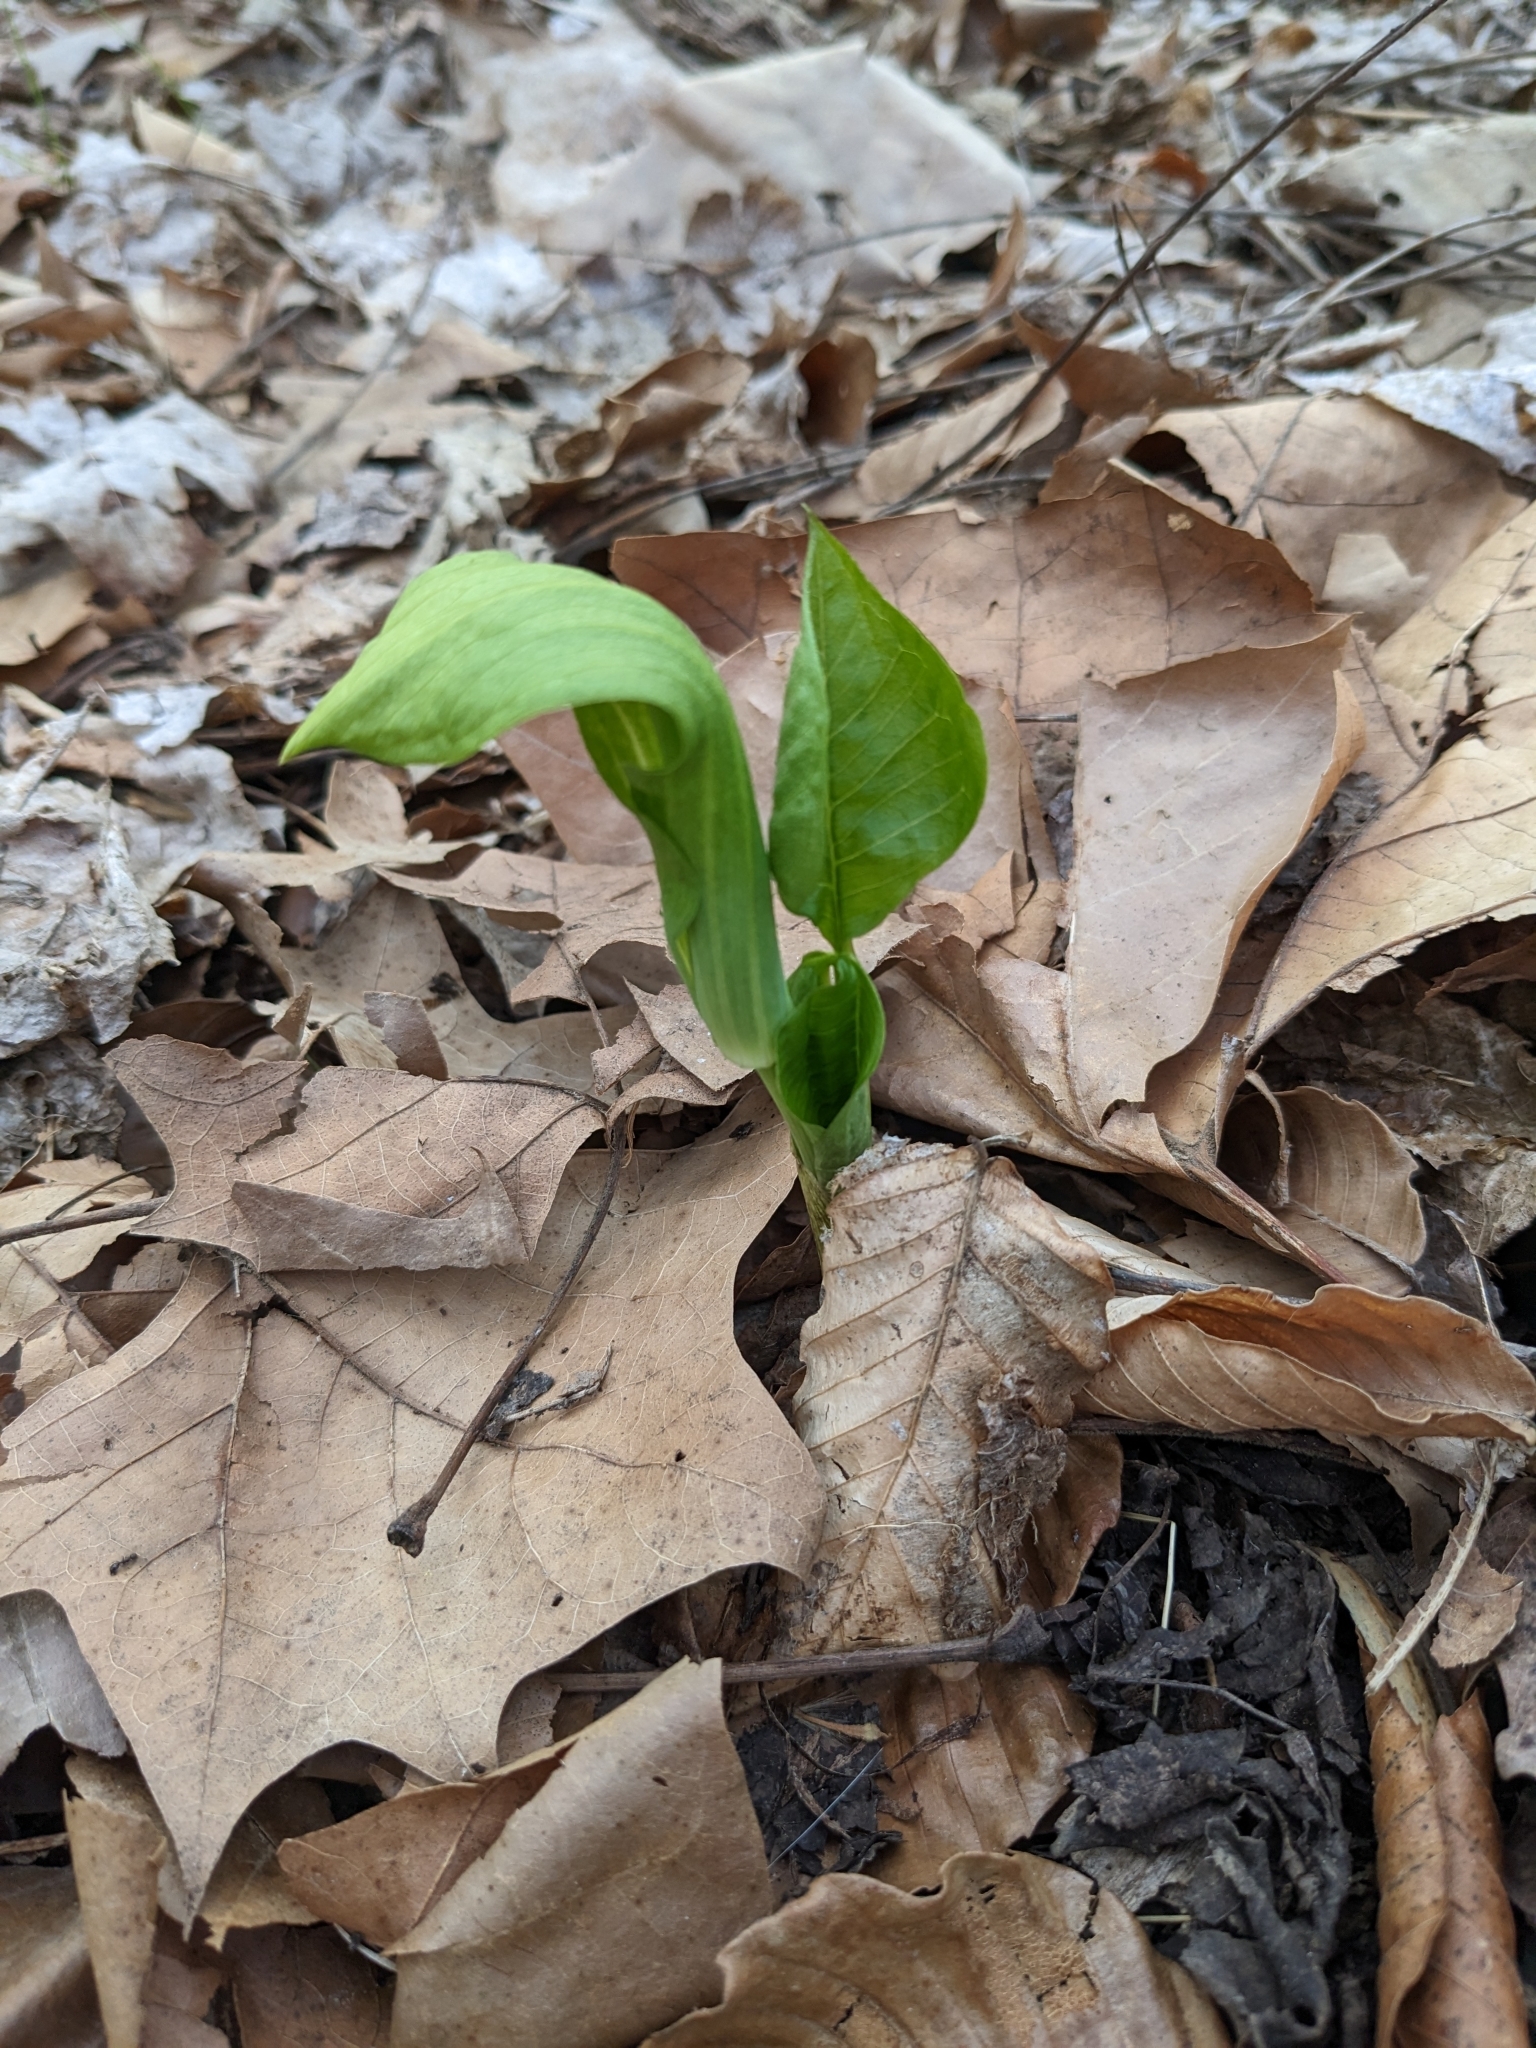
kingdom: Plantae
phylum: Tracheophyta
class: Liliopsida
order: Alismatales
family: Araceae
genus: Arisaema
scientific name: Arisaema triphyllum
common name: Jack-in-the-pulpit
